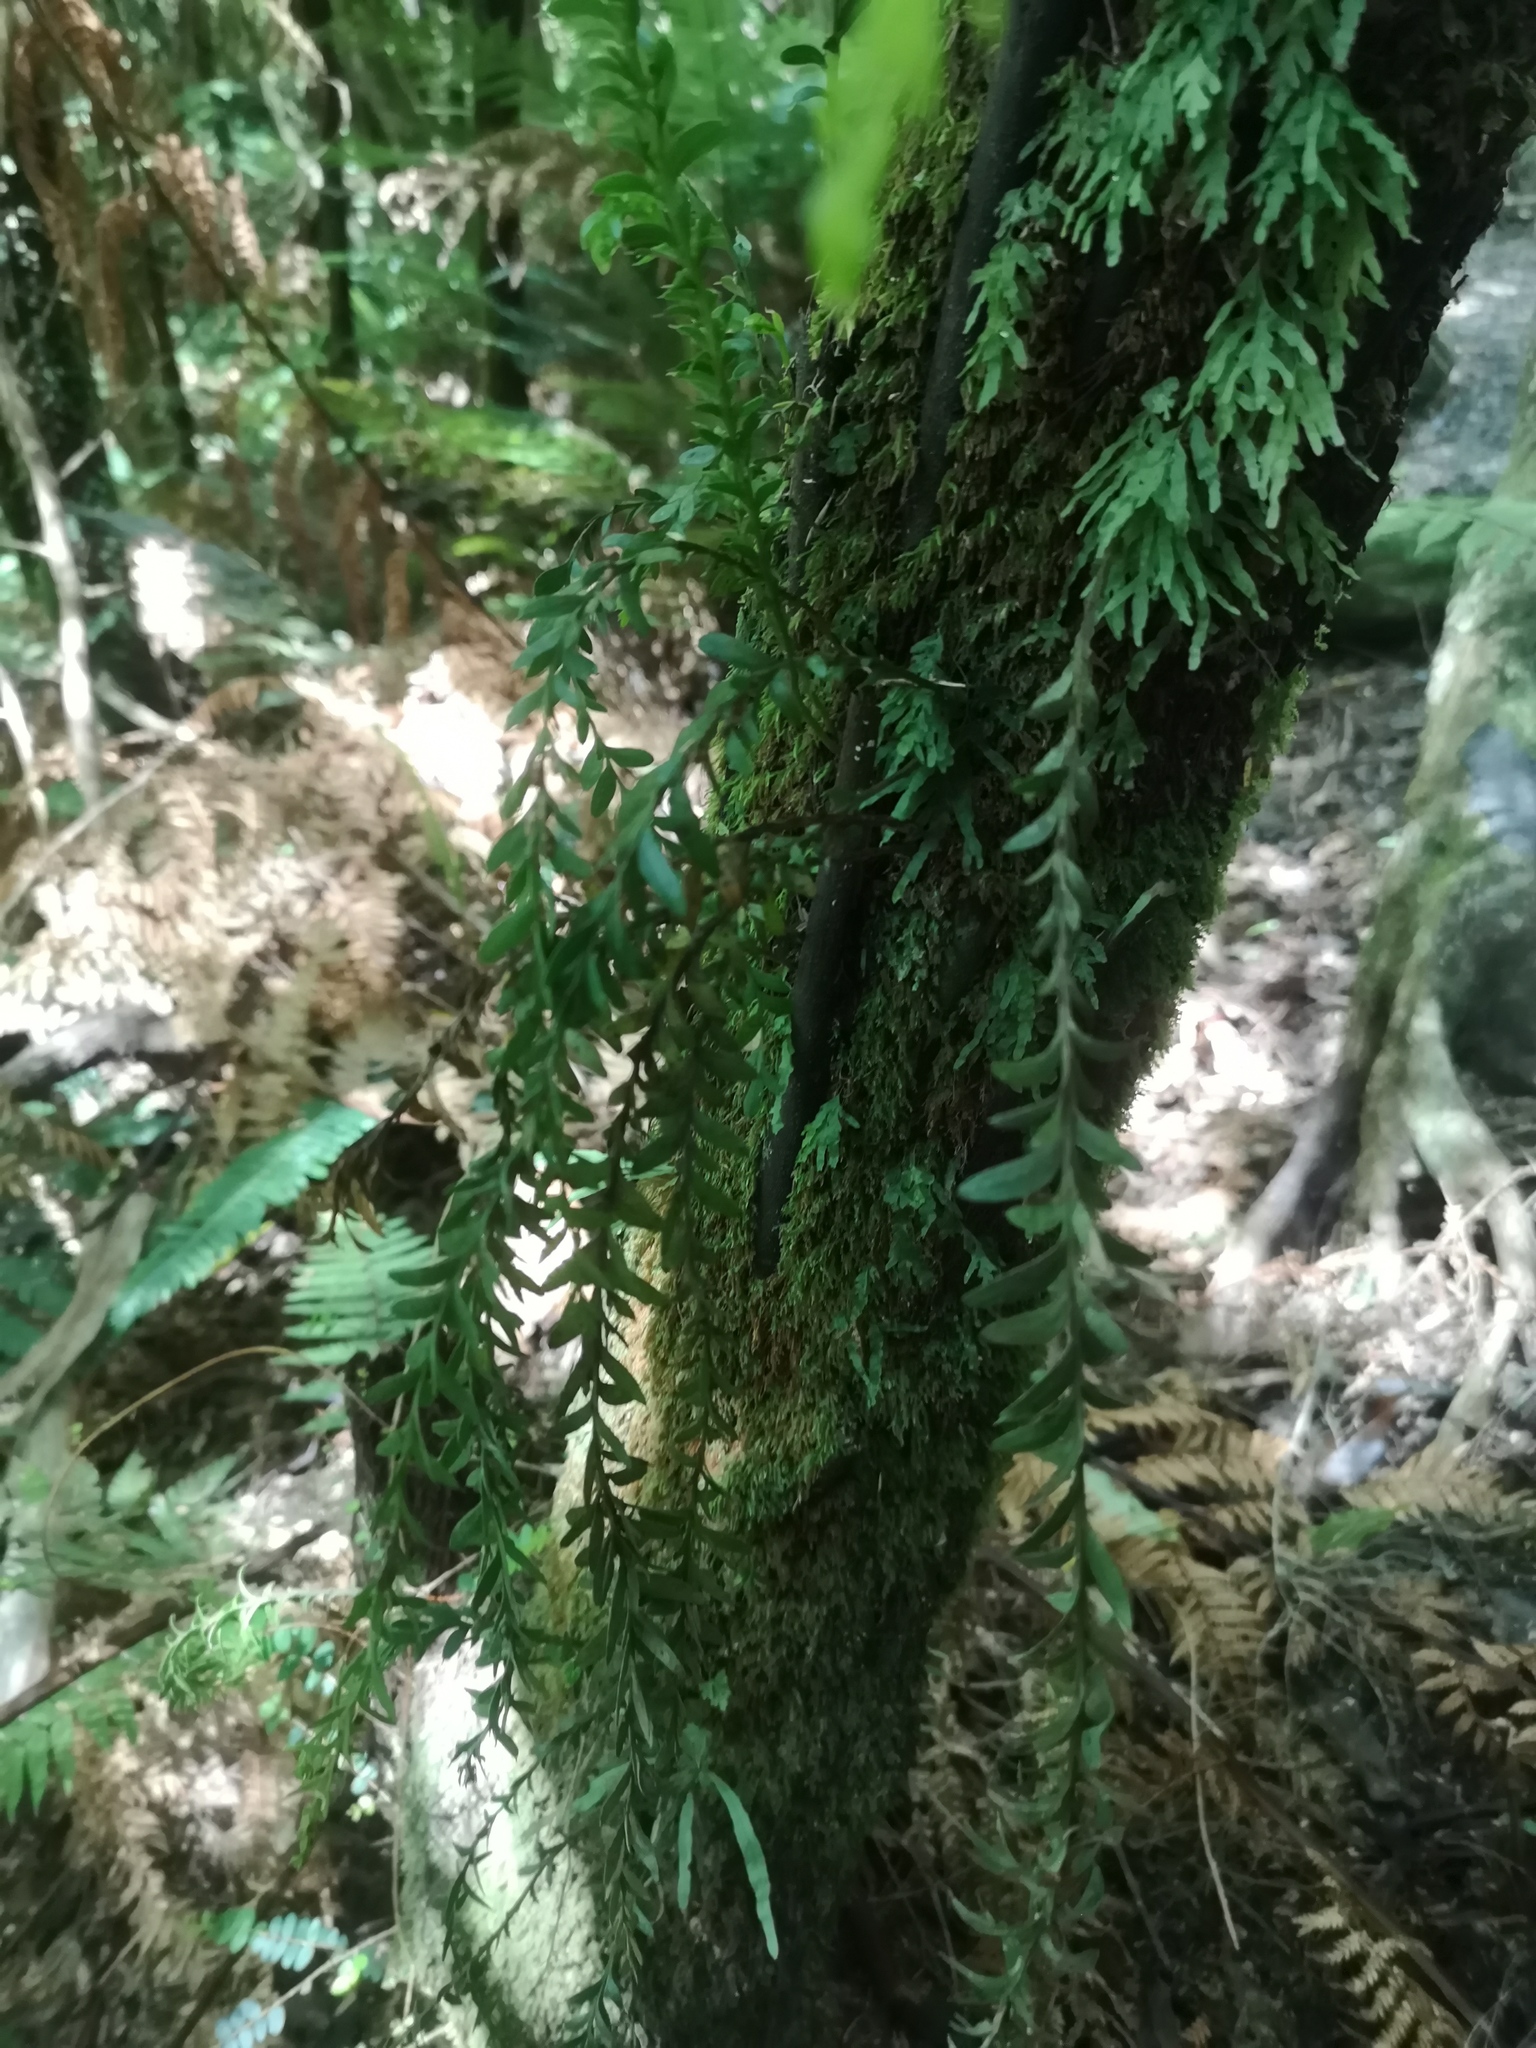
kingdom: Plantae
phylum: Tracheophyta
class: Polypodiopsida
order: Psilotales
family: Psilotaceae
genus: Tmesipteris
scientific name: Tmesipteris elongata
